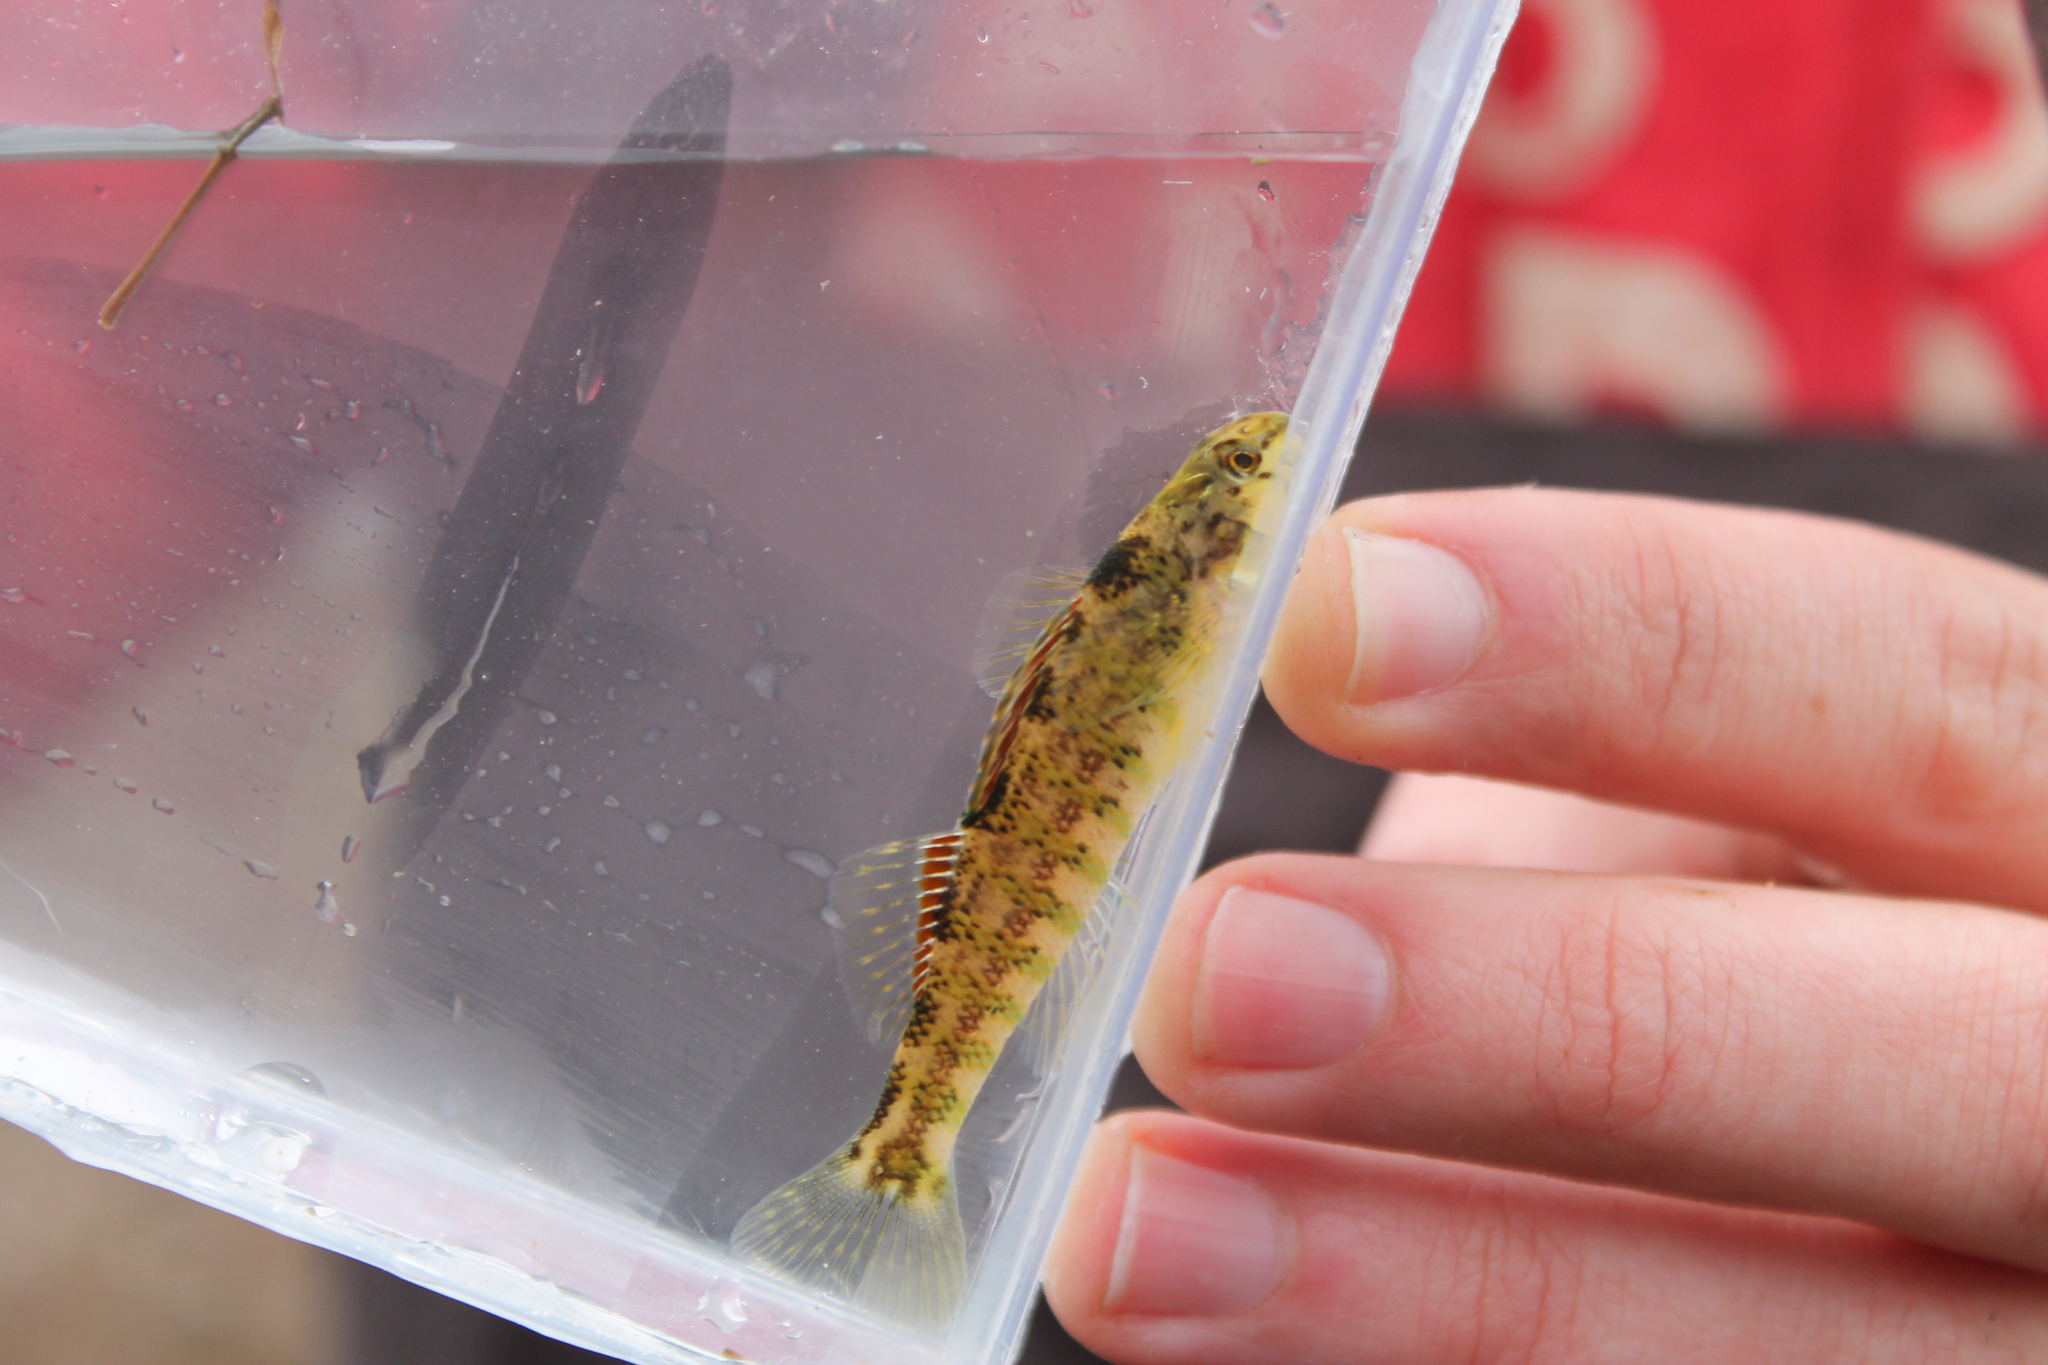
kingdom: Animalia
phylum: Chordata
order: Perciformes
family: Percidae
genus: Etheostoma
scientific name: Etheostoma zonale
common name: Banded darter
